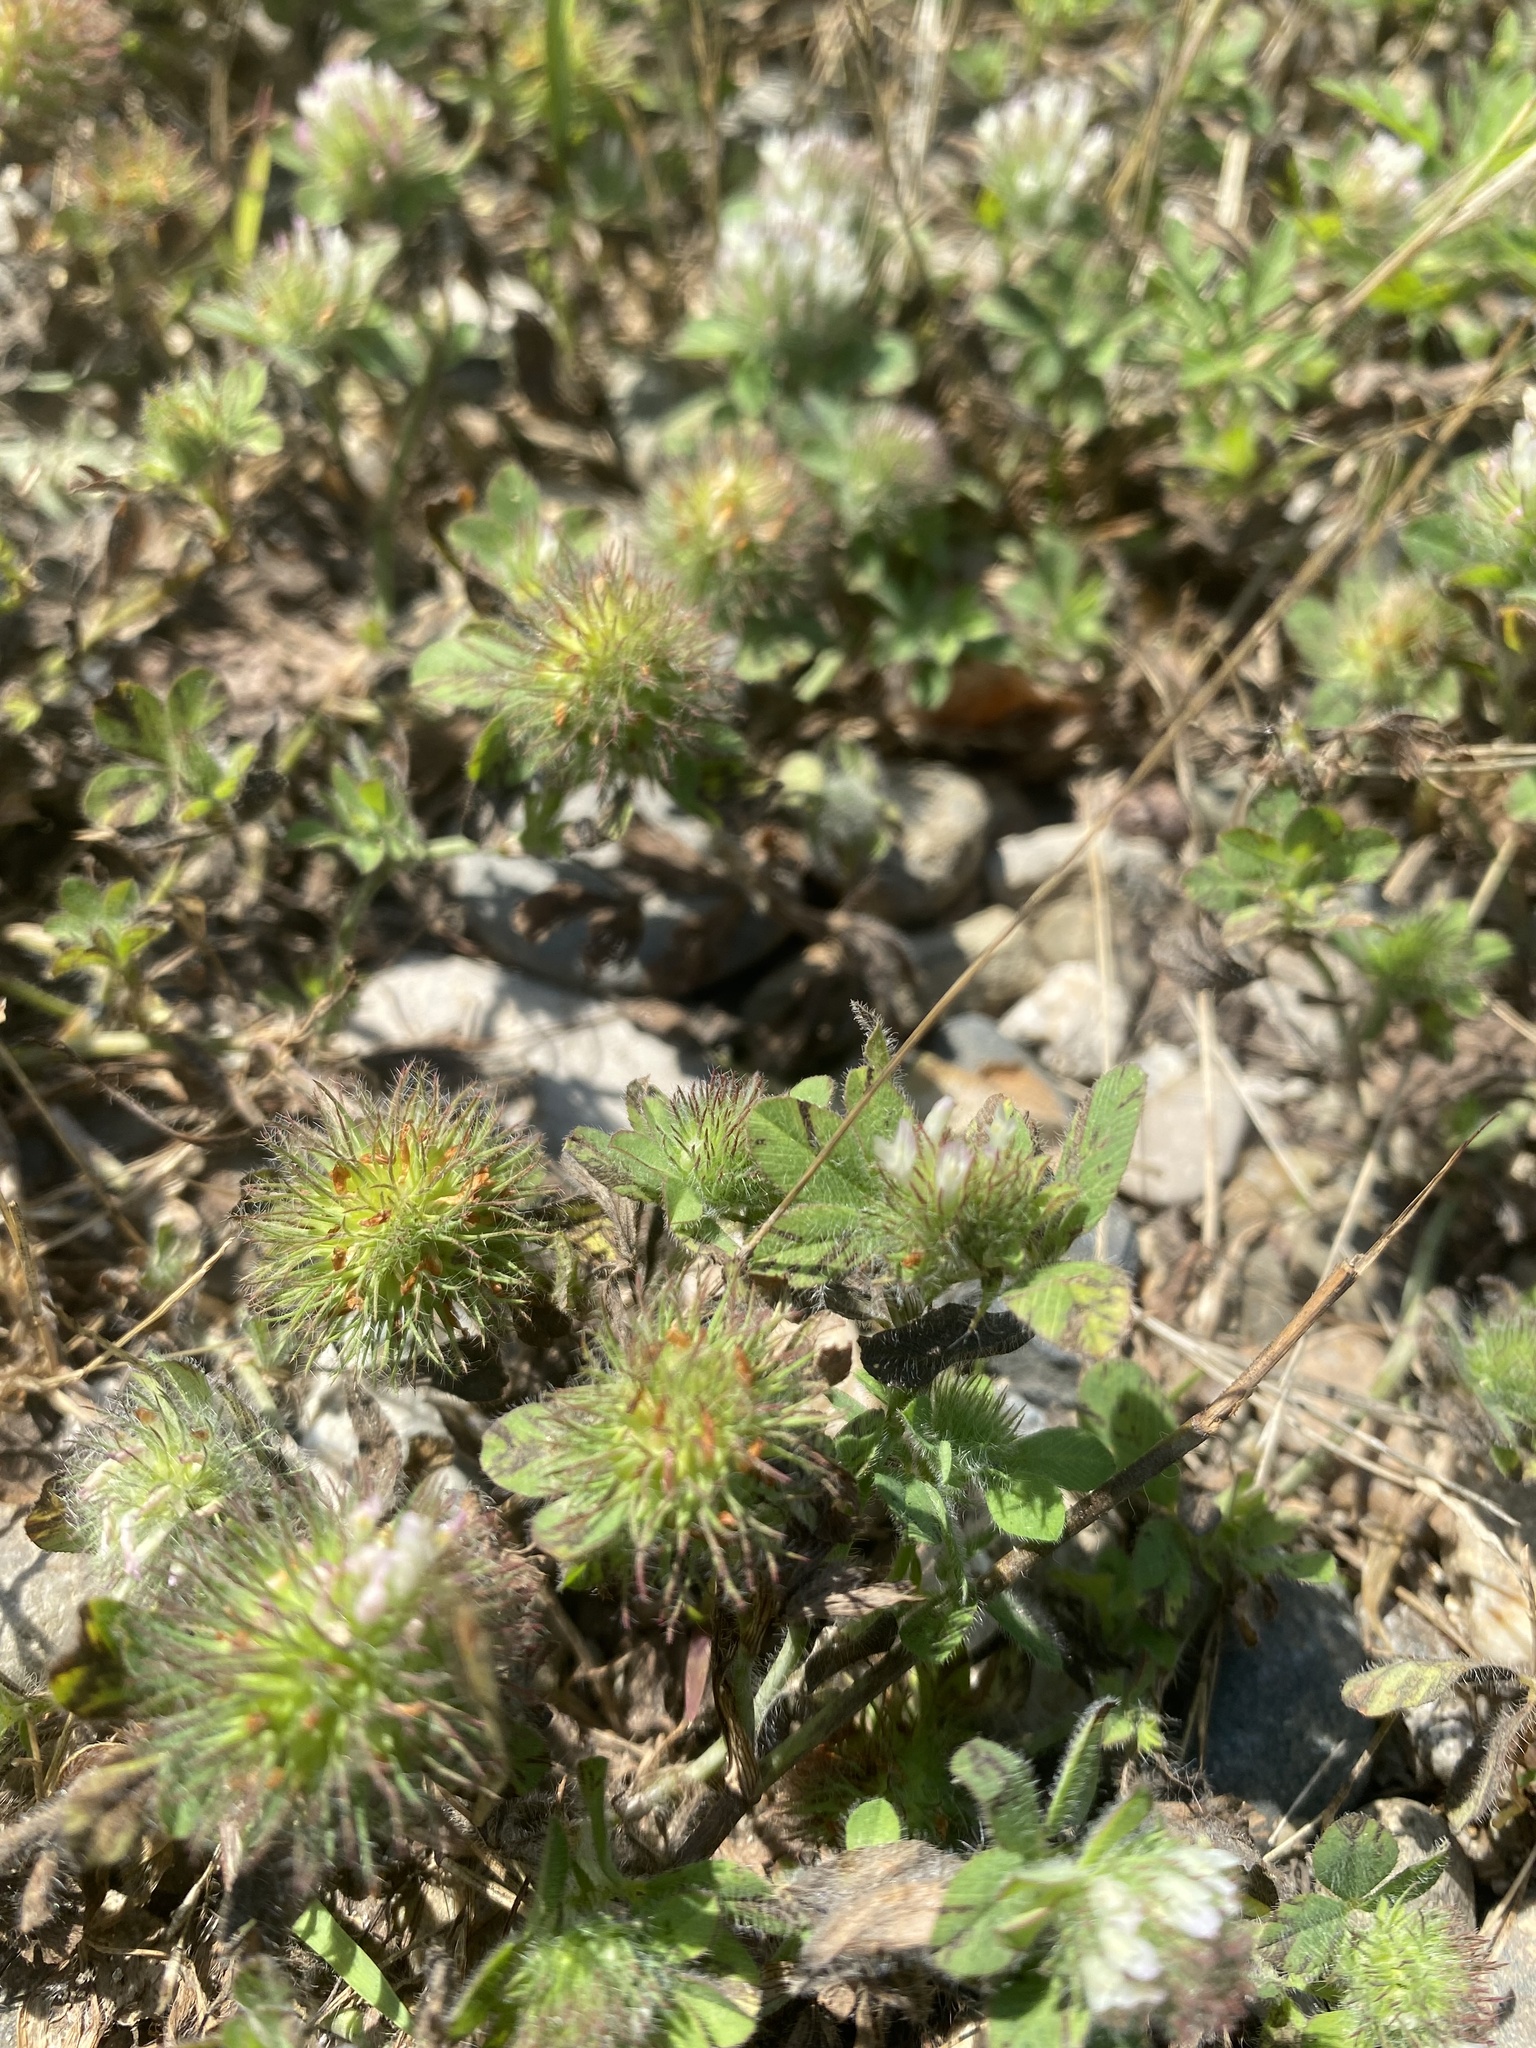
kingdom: Plantae
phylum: Tracheophyta
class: Magnoliopsida
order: Fabales
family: Fabaceae
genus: Trifolium
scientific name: Trifolium lappaceum
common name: Bur clover
